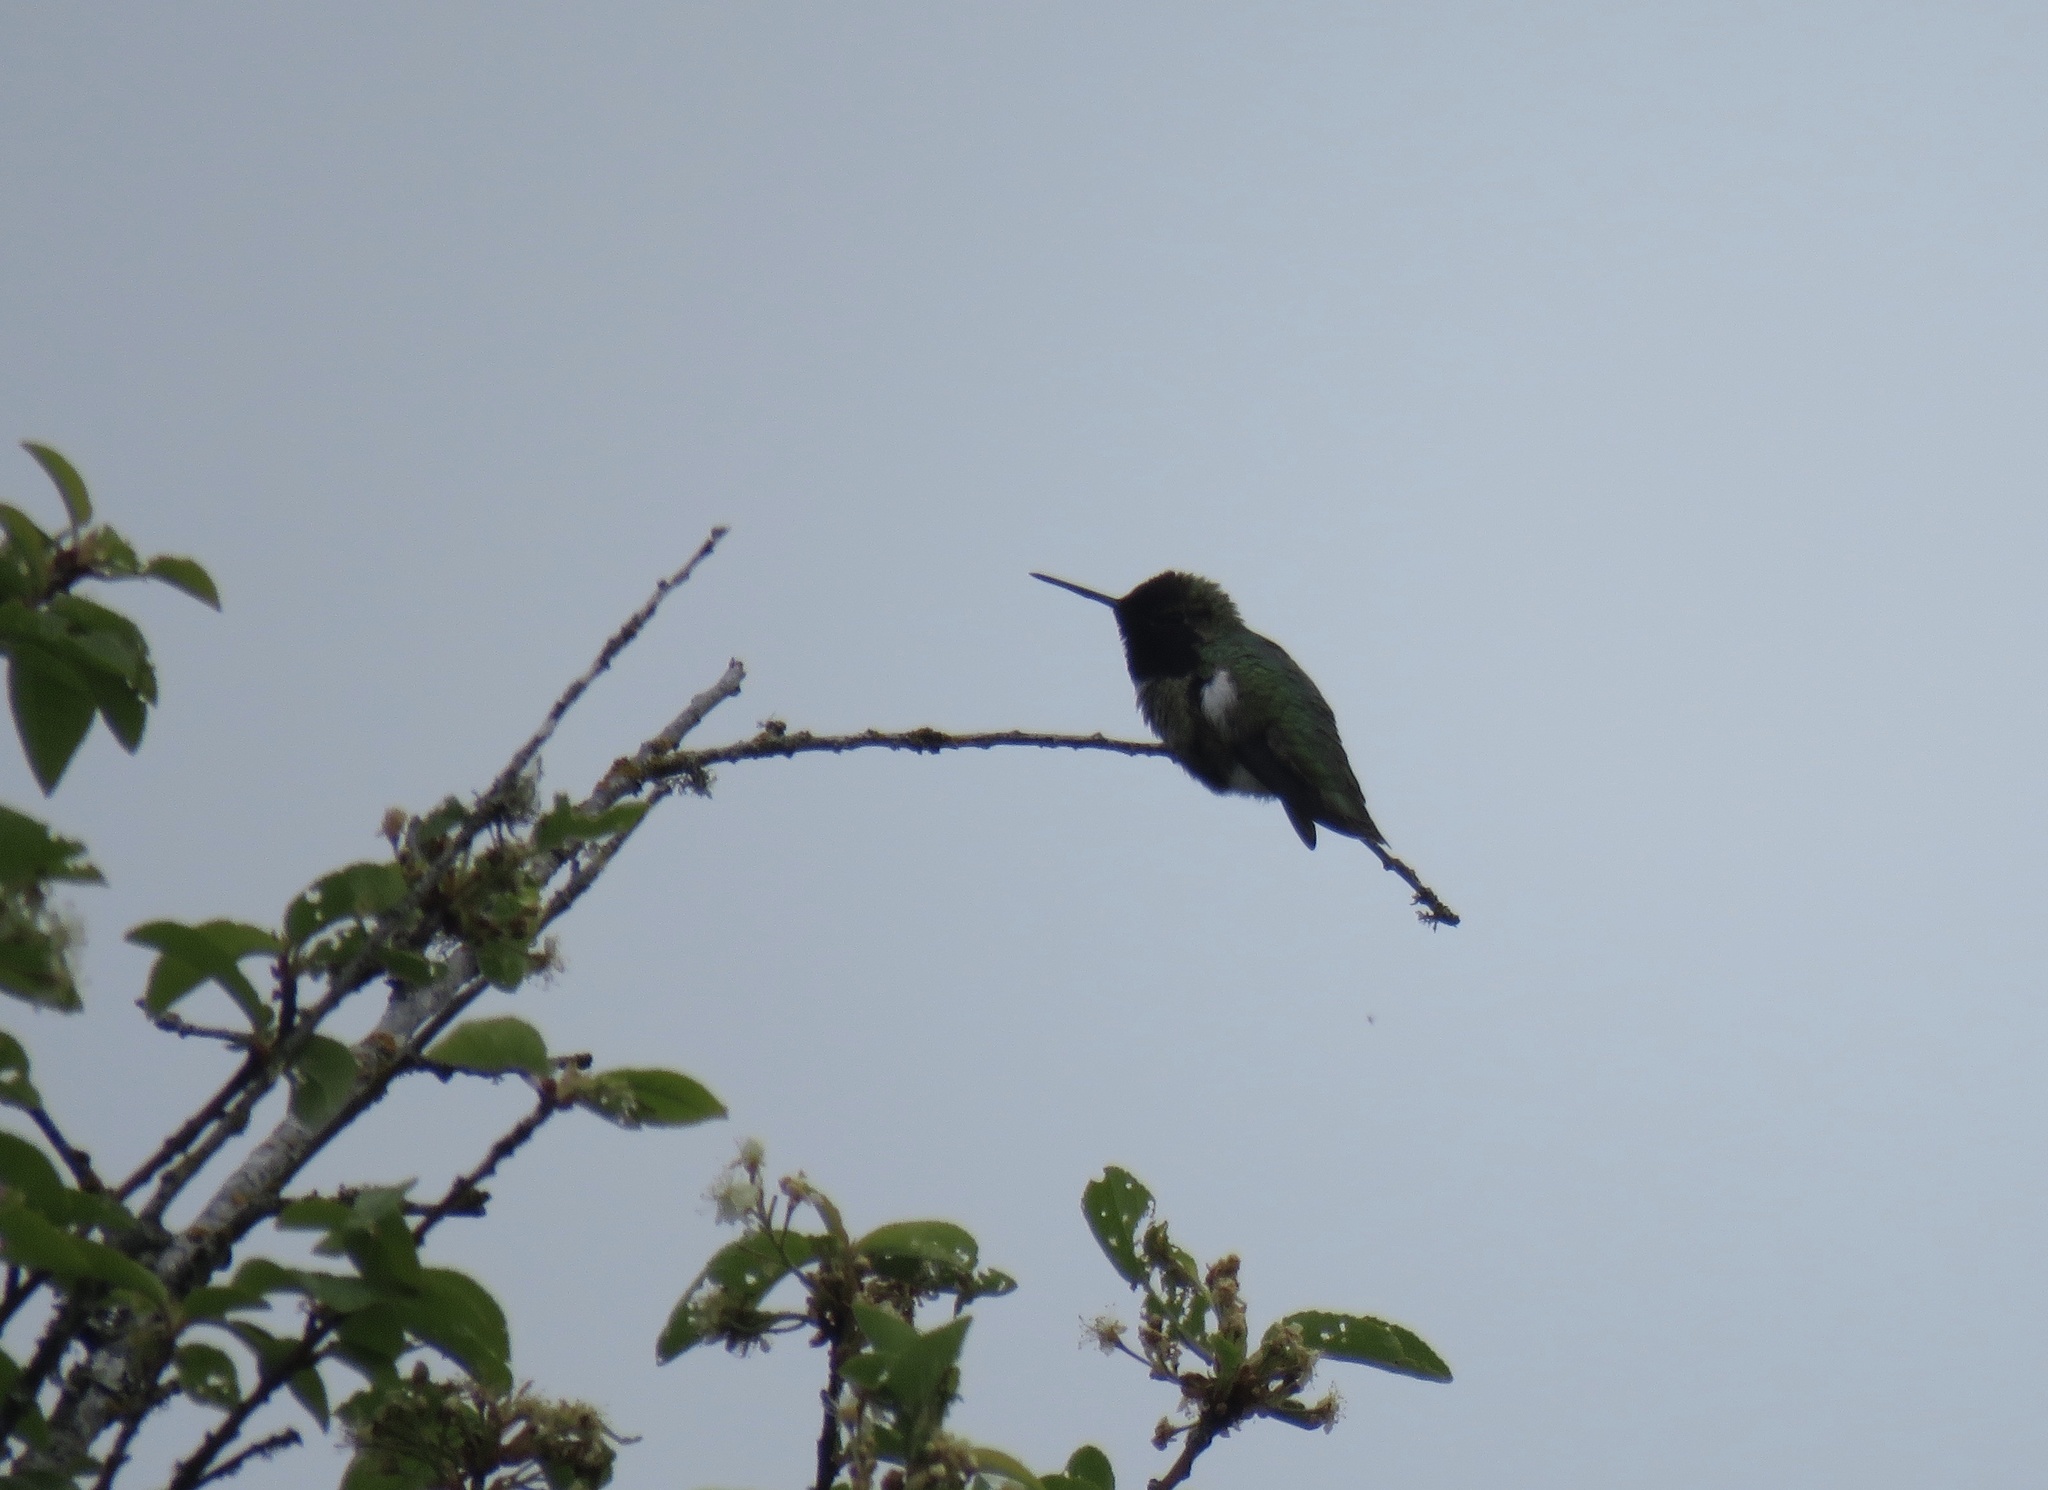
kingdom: Animalia
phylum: Chordata
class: Aves
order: Apodiformes
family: Trochilidae
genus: Calypte
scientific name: Calypte anna
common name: Anna's hummingbird
